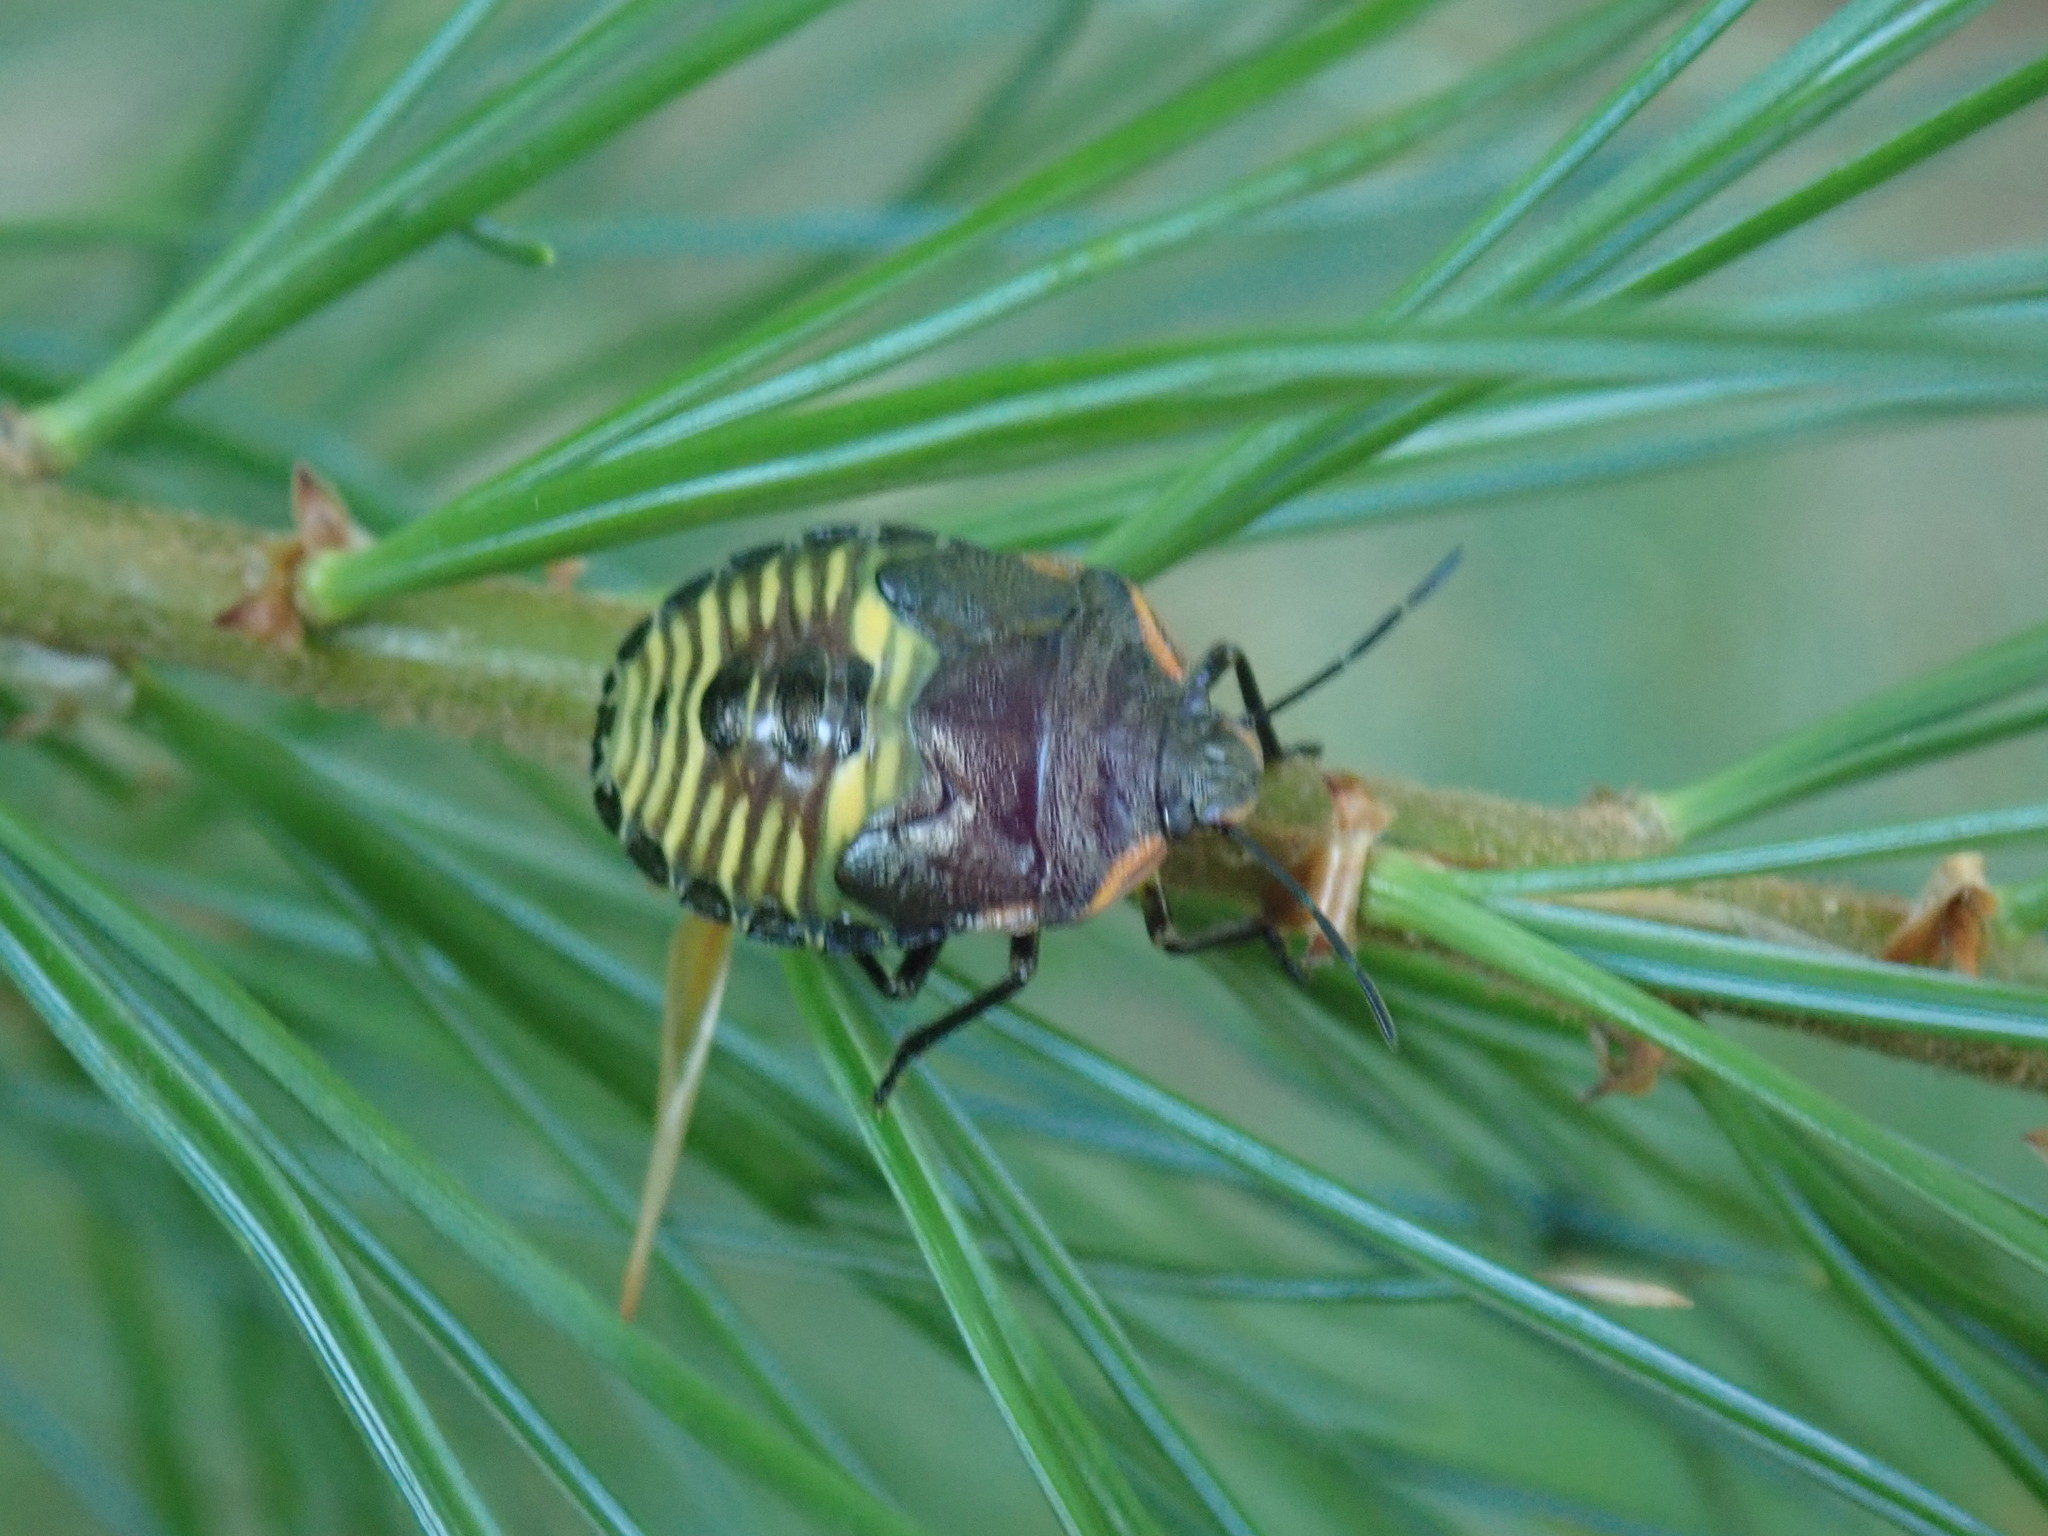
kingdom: Animalia
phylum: Arthropoda
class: Insecta
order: Hemiptera
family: Pentatomidae
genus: Chinavia
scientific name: Chinavia hilaris
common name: Green stink bug
